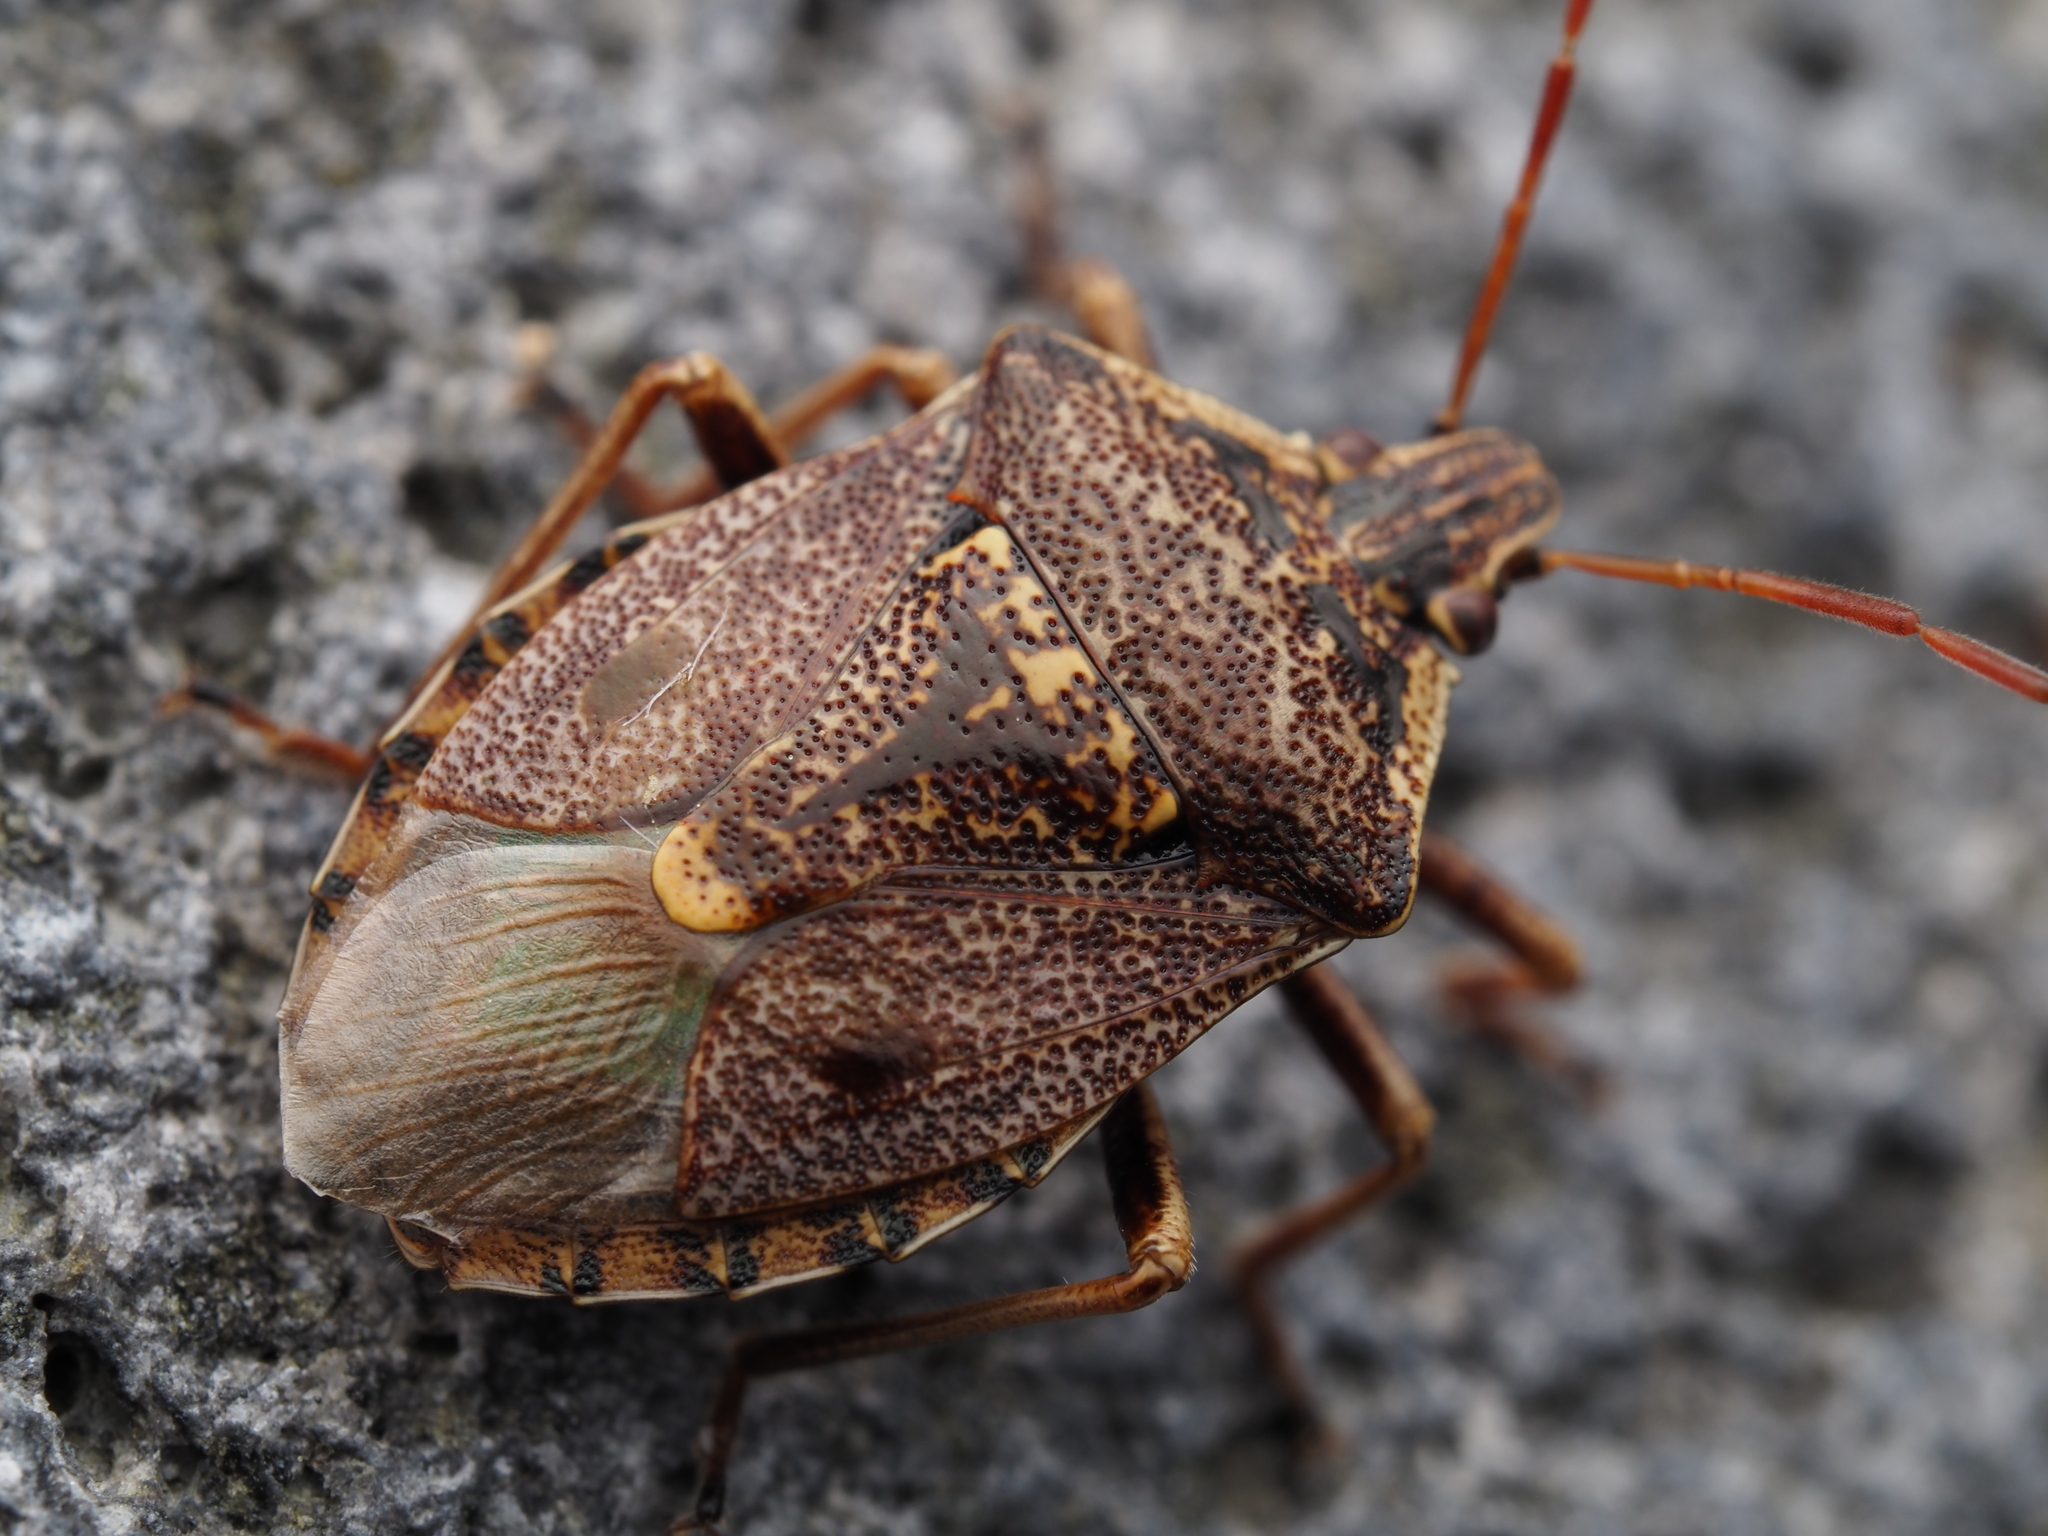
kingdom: Animalia
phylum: Arthropoda
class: Insecta
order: Hemiptera
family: Pentatomidae
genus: Cermatulus
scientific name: Cermatulus nasalis
